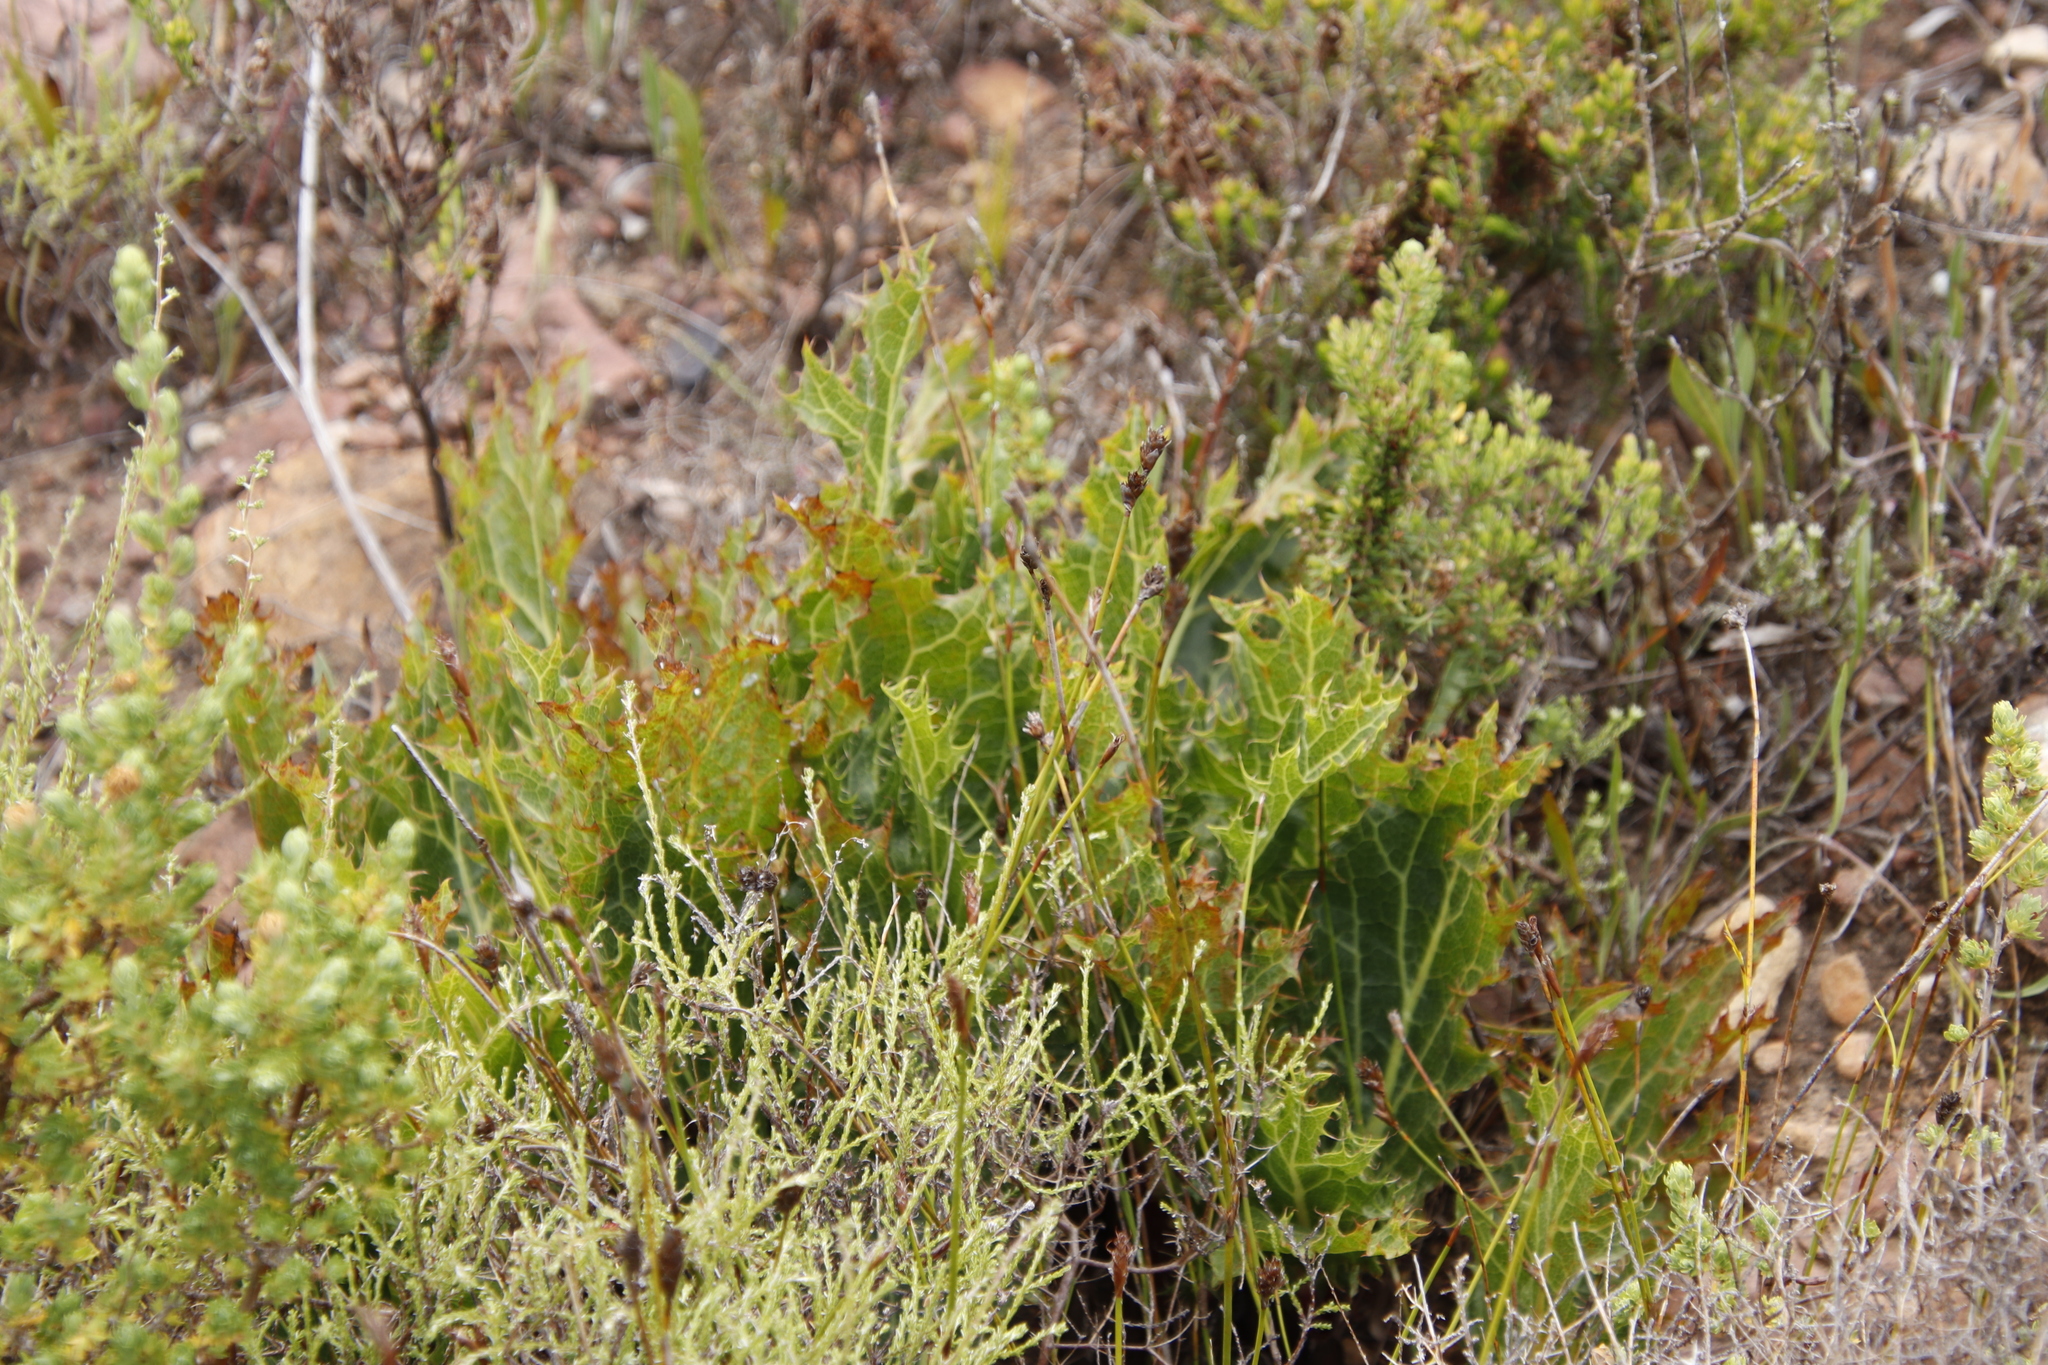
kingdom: Plantae
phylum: Tracheophyta
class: Magnoliopsida
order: Apiales
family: Apiaceae
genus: Lichtensteinia
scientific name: Lichtensteinia lacera
